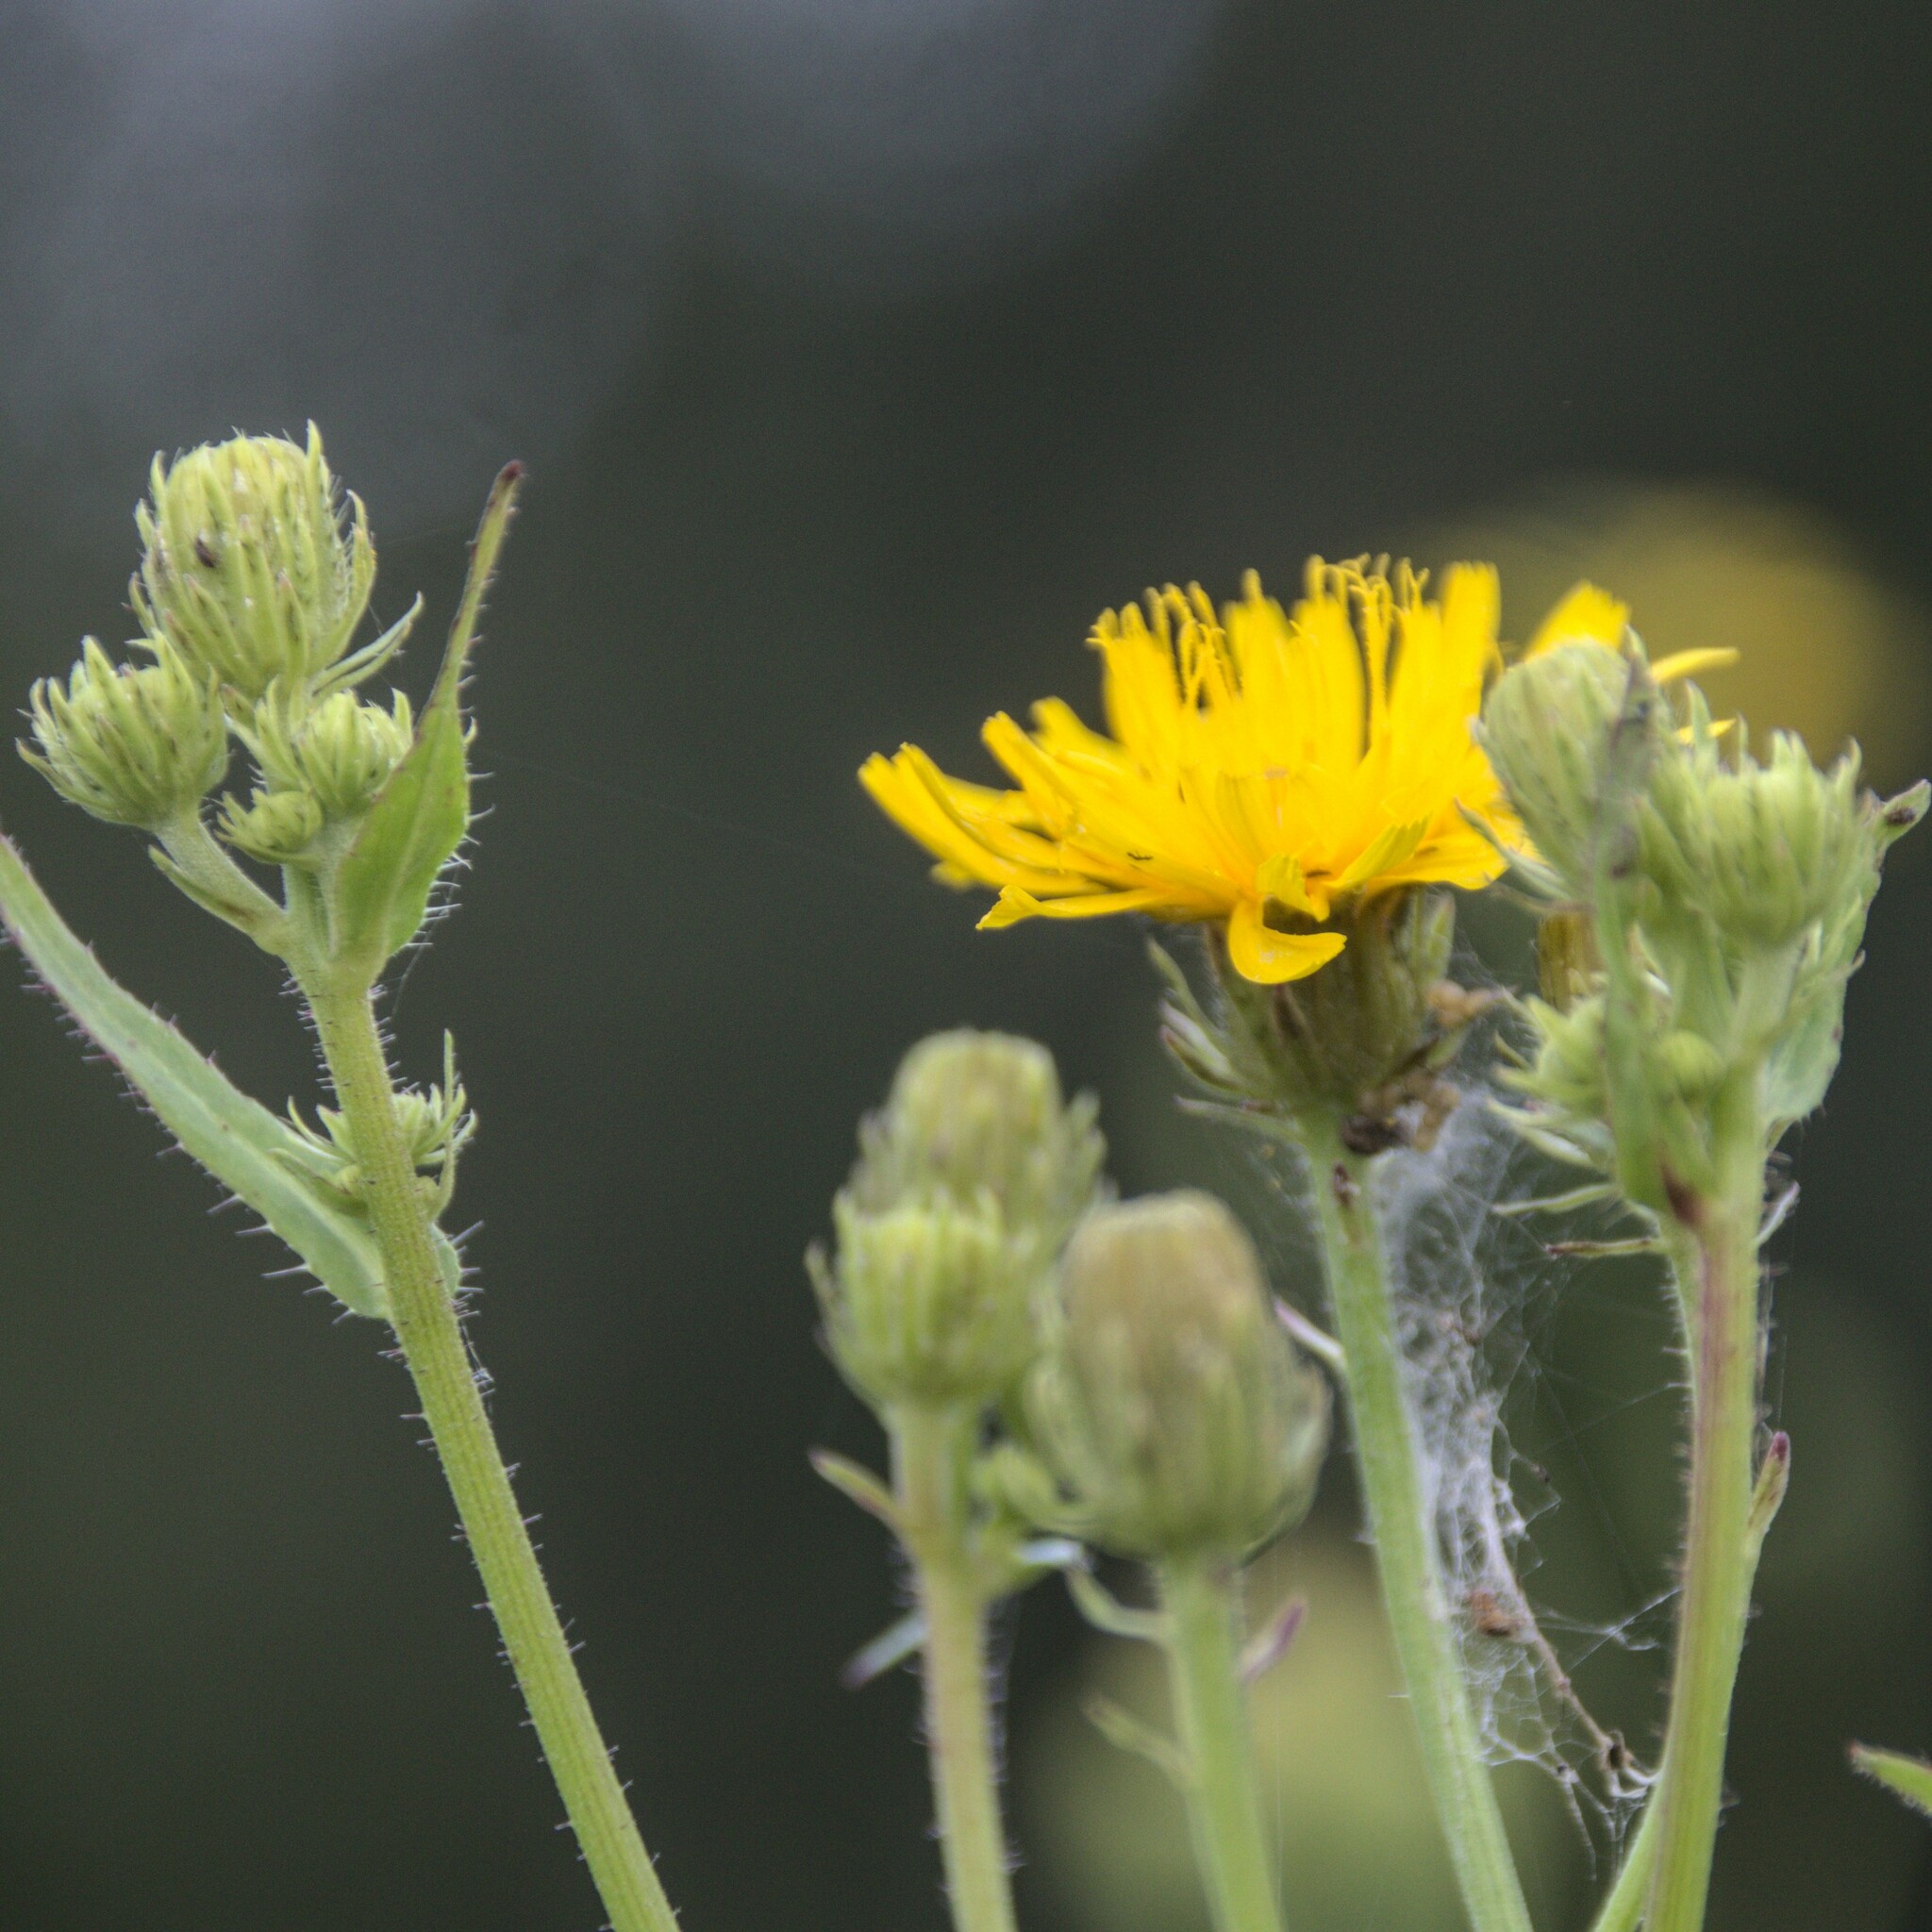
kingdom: Plantae
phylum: Tracheophyta
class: Magnoliopsida
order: Asterales
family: Asteraceae
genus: Picris
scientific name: Picris hieracioides
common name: Hawkweed oxtongue
